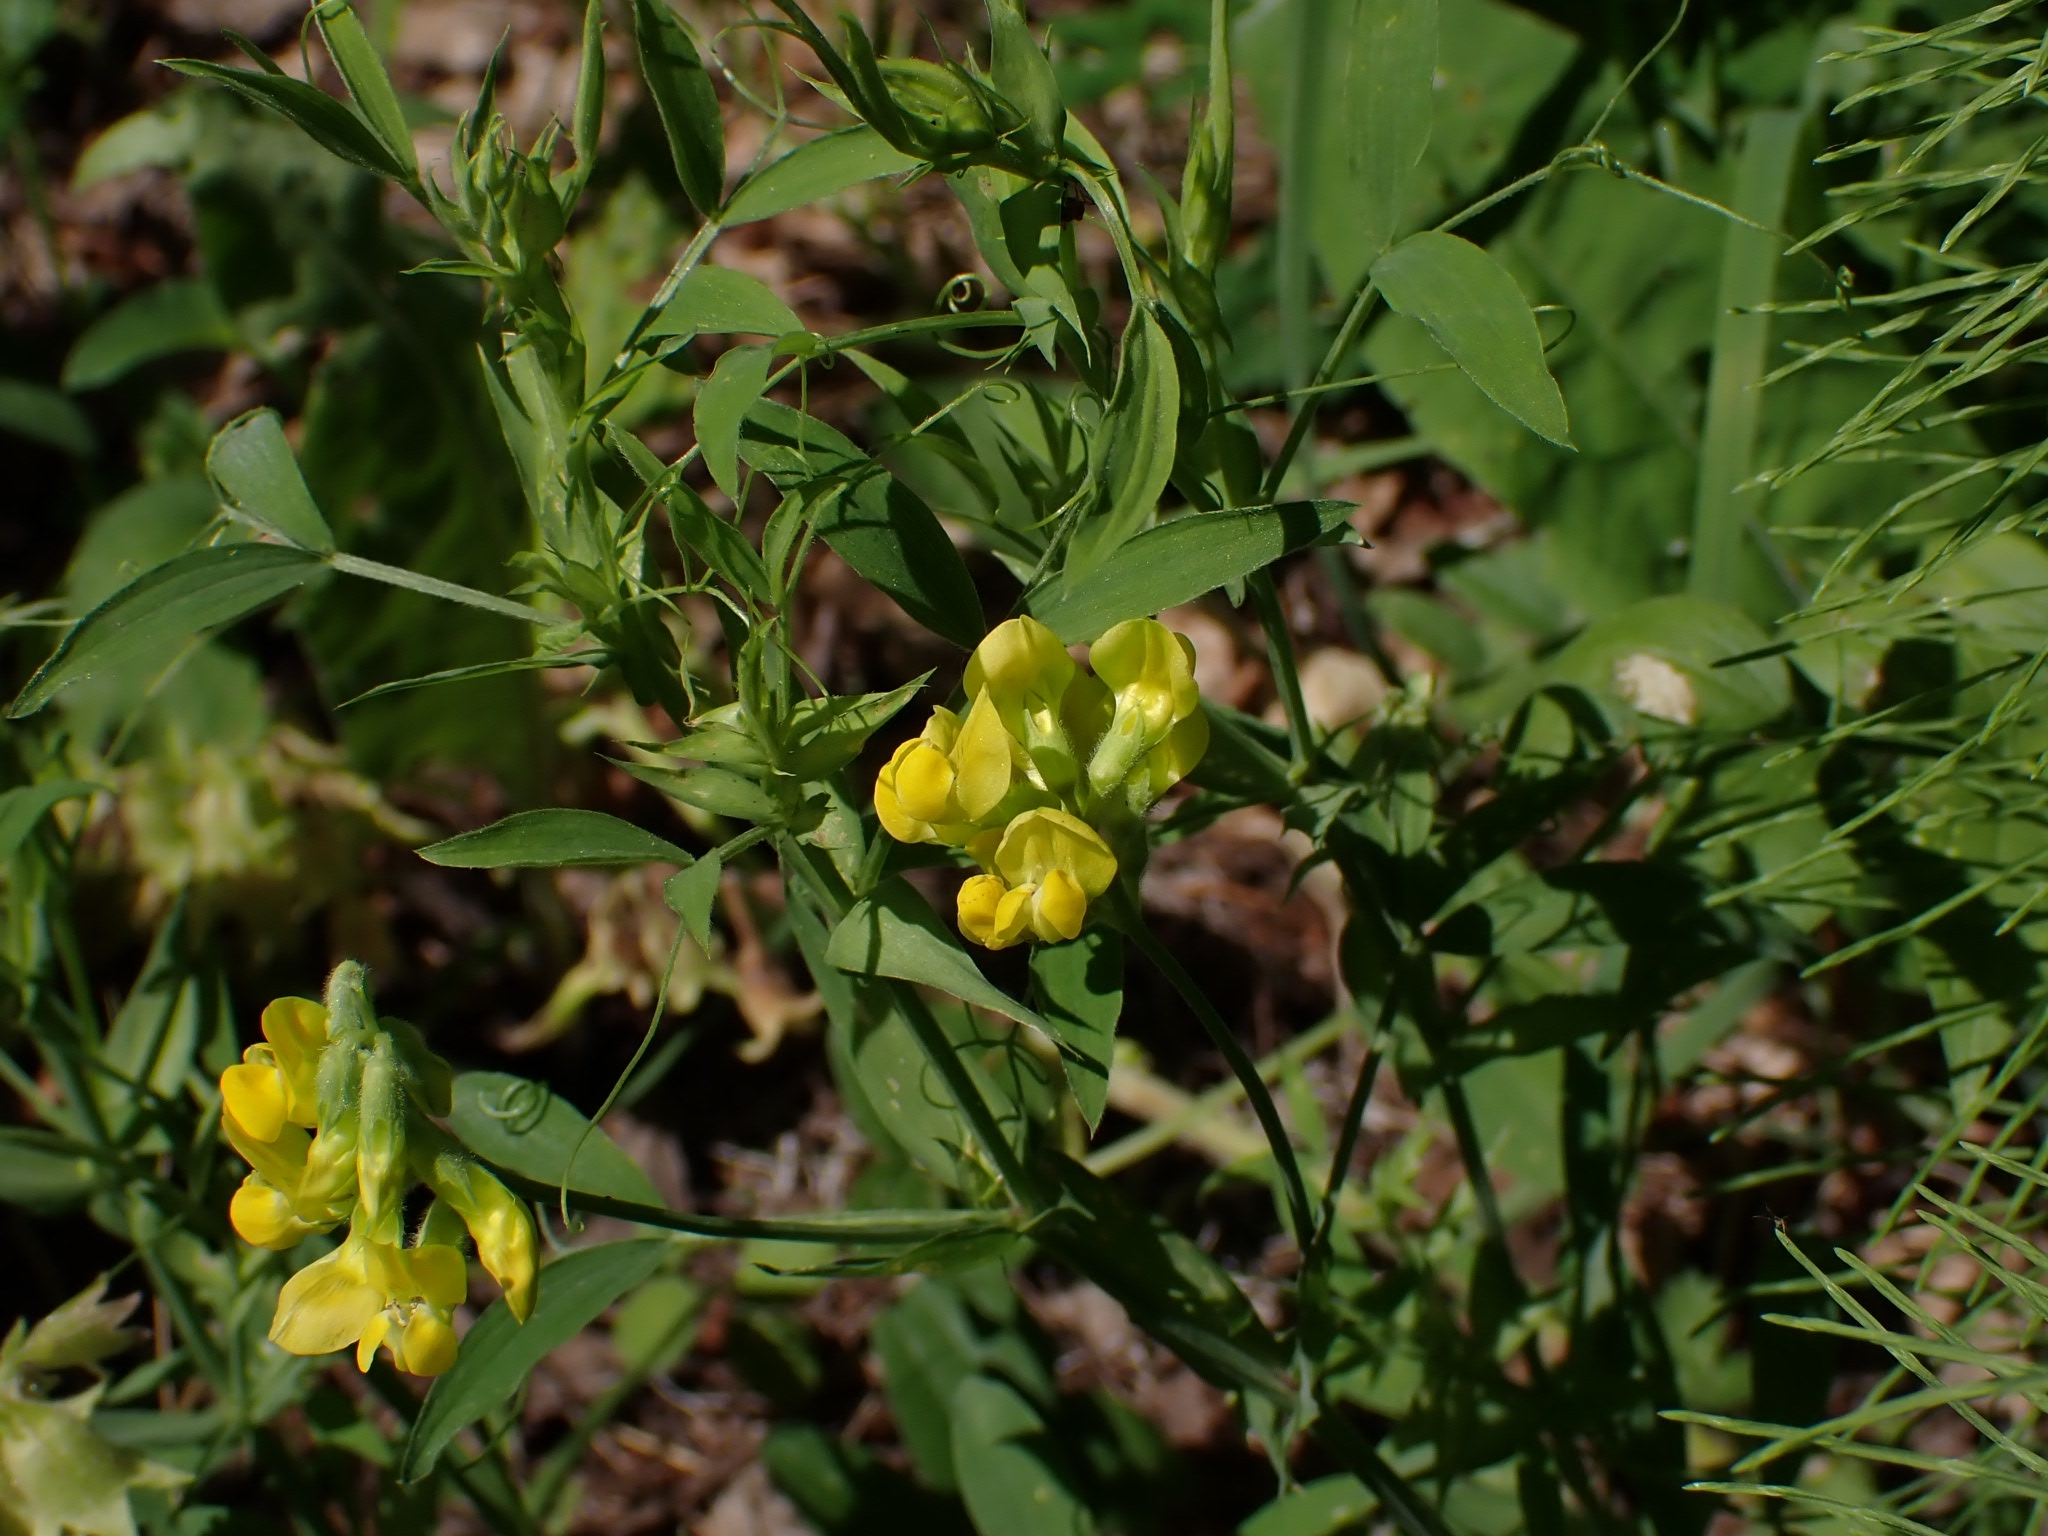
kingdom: Plantae
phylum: Tracheophyta
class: Magnoliopsida
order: Fabales
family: Fabaceae
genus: Lathyrus
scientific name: Lathyrus pratensis
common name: Meadow vetchling
